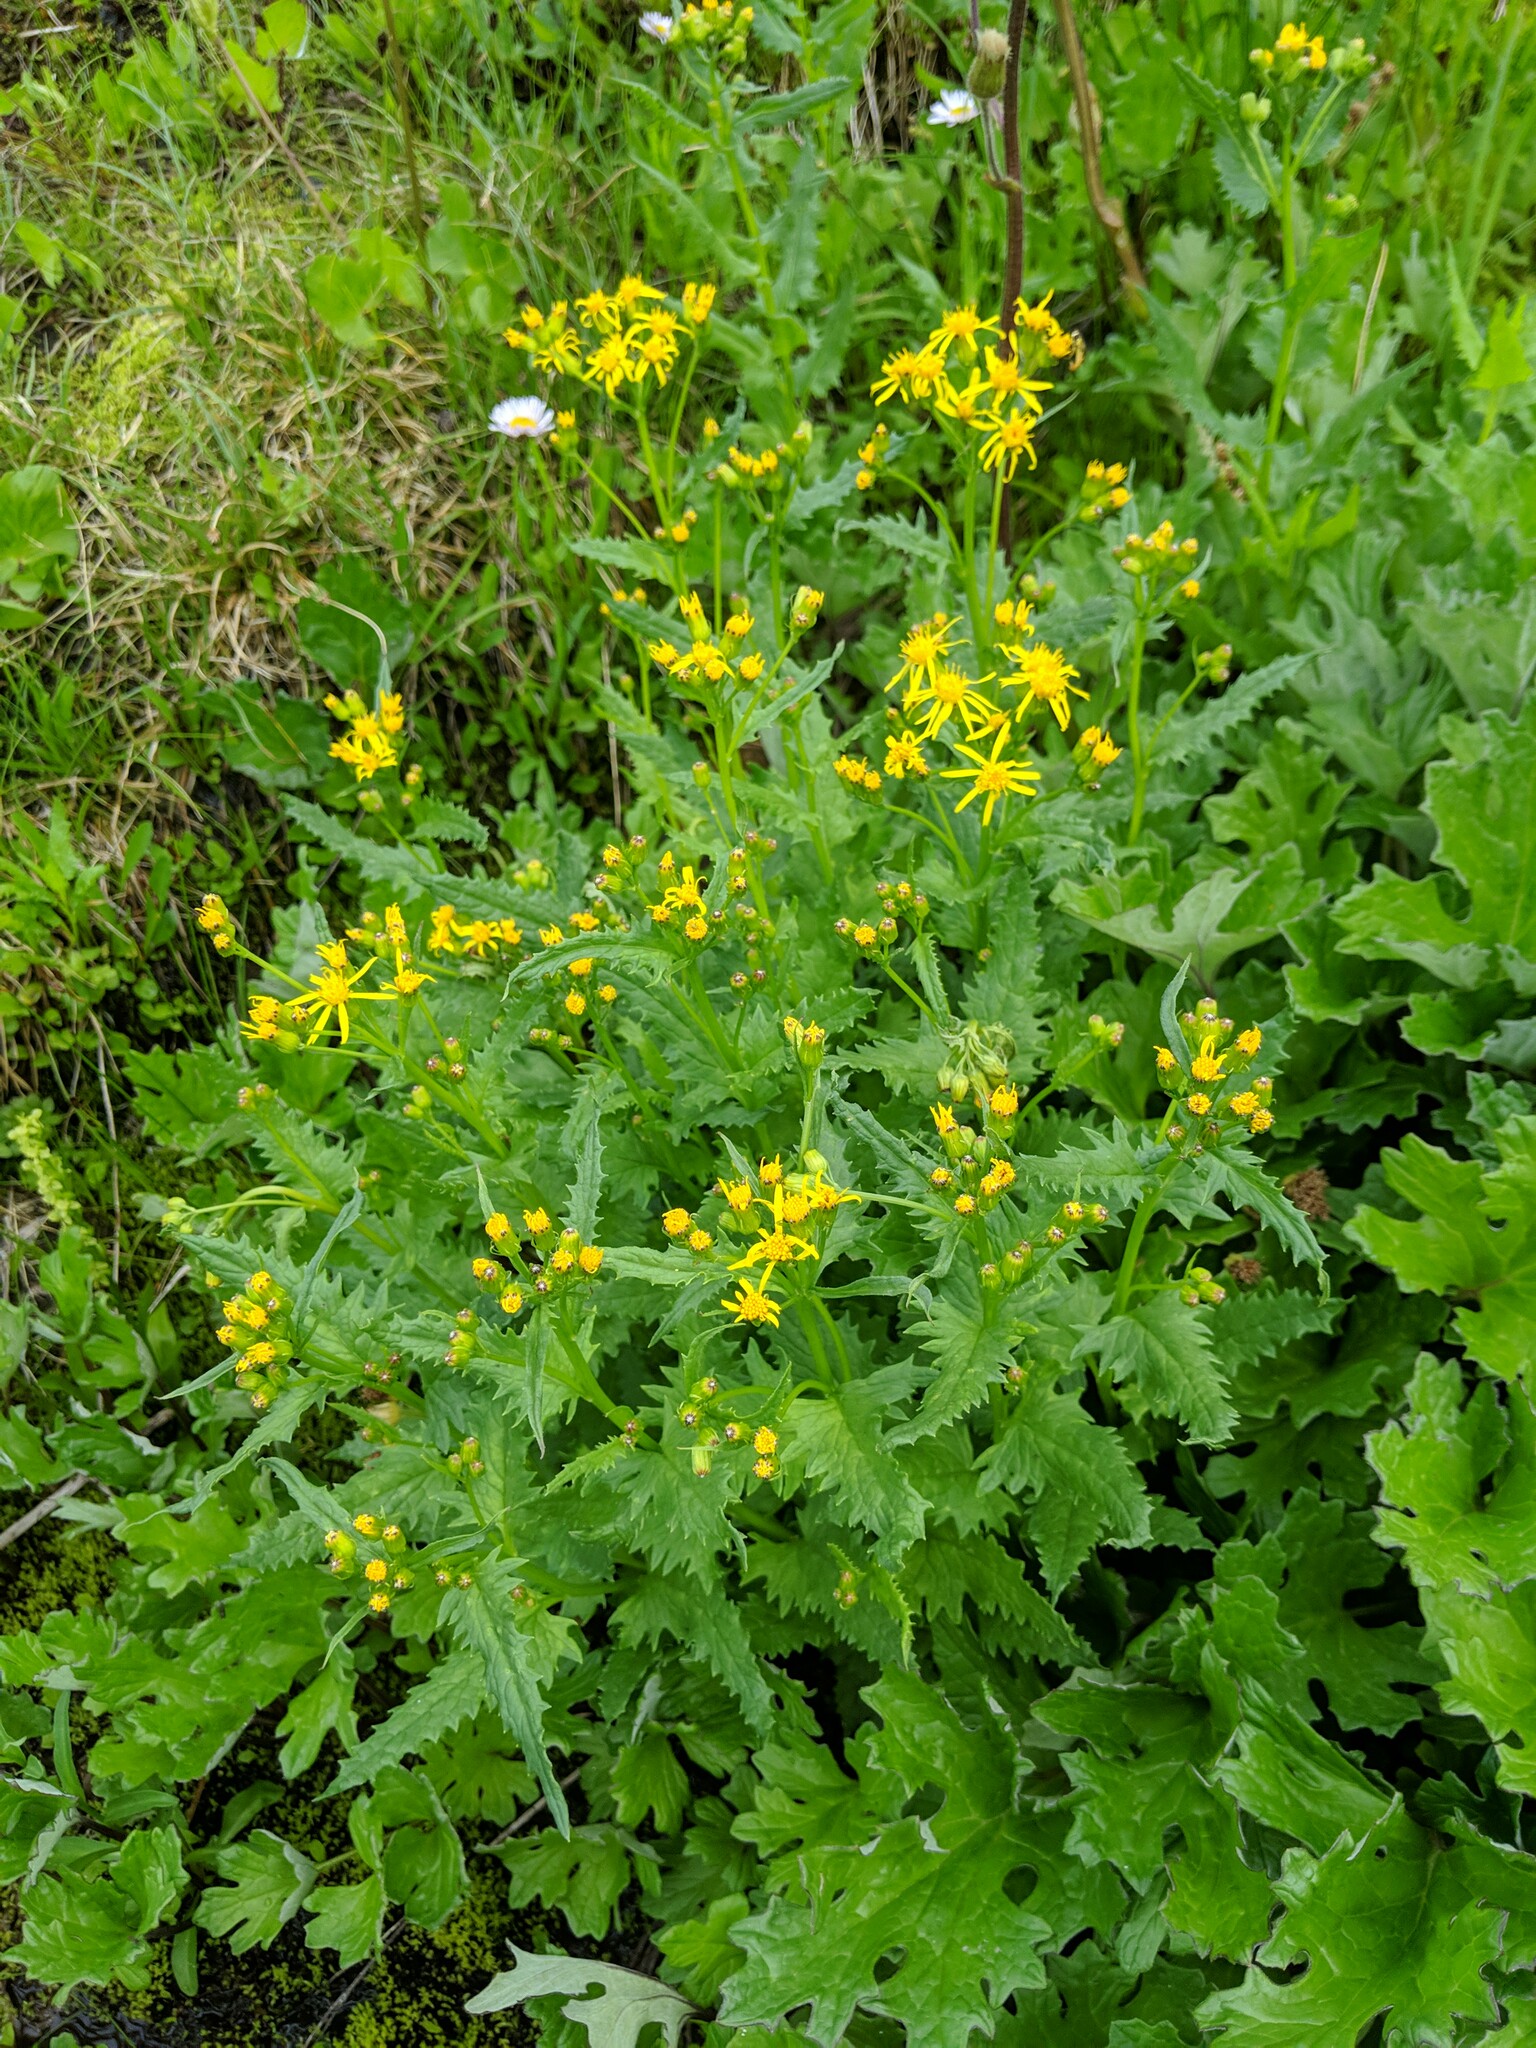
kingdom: Plantae
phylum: Tracheophyta
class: Magnoliopsida
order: Asterales
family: Asteraceae
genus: Senecio
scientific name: Senecio triangularis
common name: Arrowleaf butterweed
